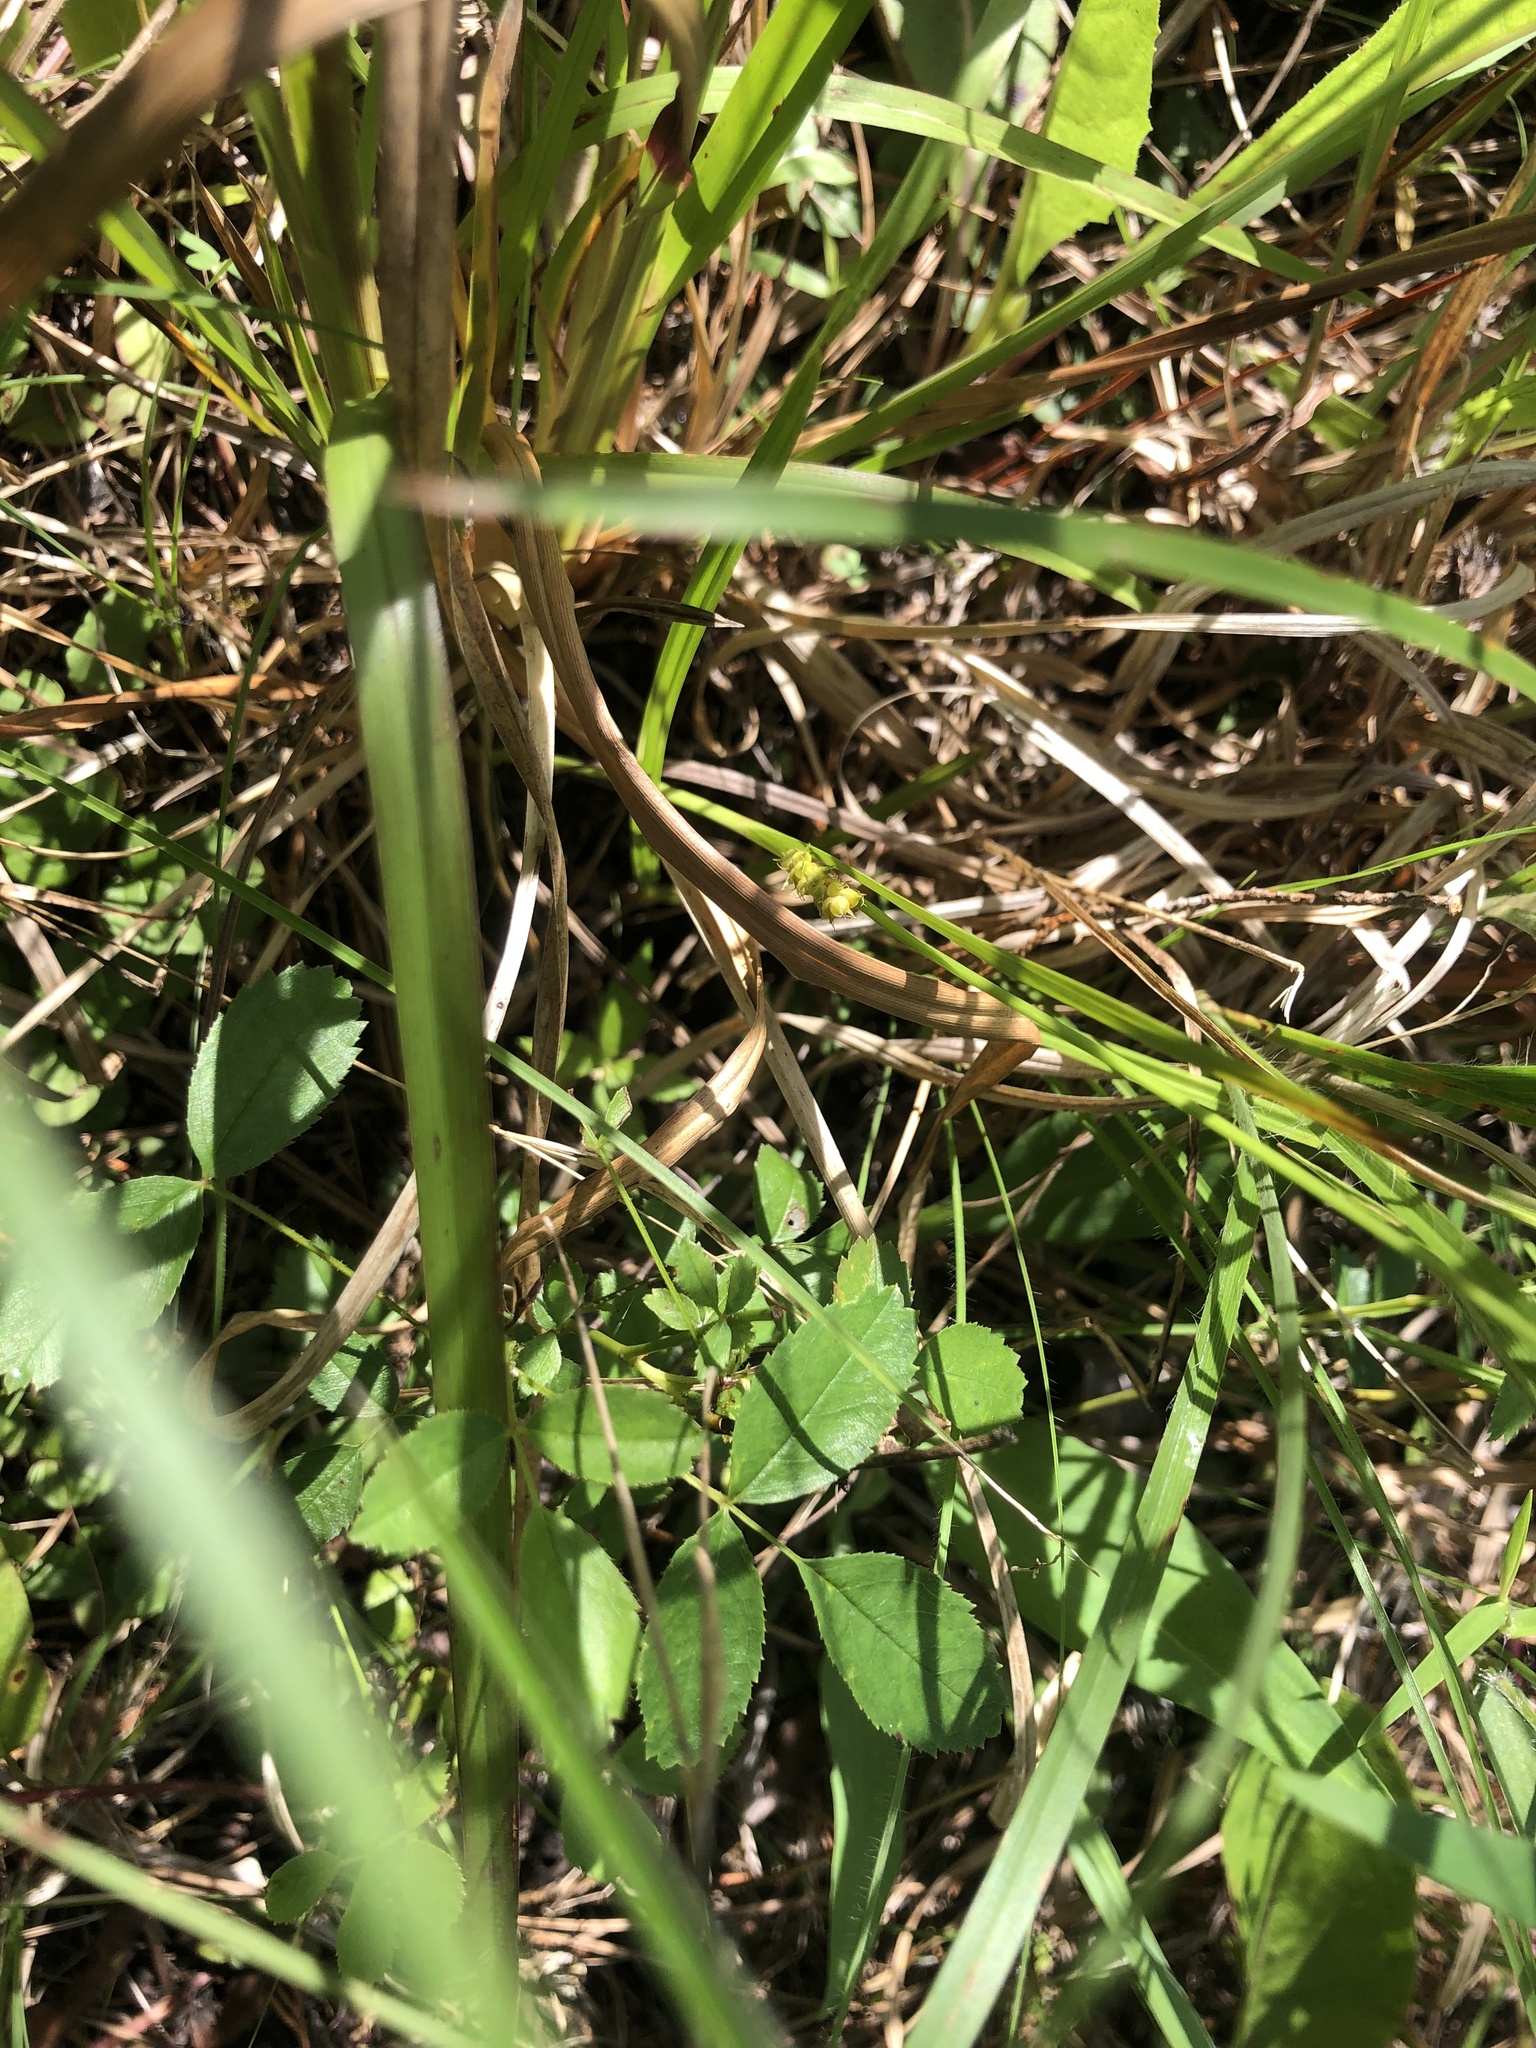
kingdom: Plantae
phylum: Tracheophyta
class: Magnoliopsida
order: Rosales
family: Rosaceae
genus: Rosa
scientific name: Rosa carolina
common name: Pasture rose
